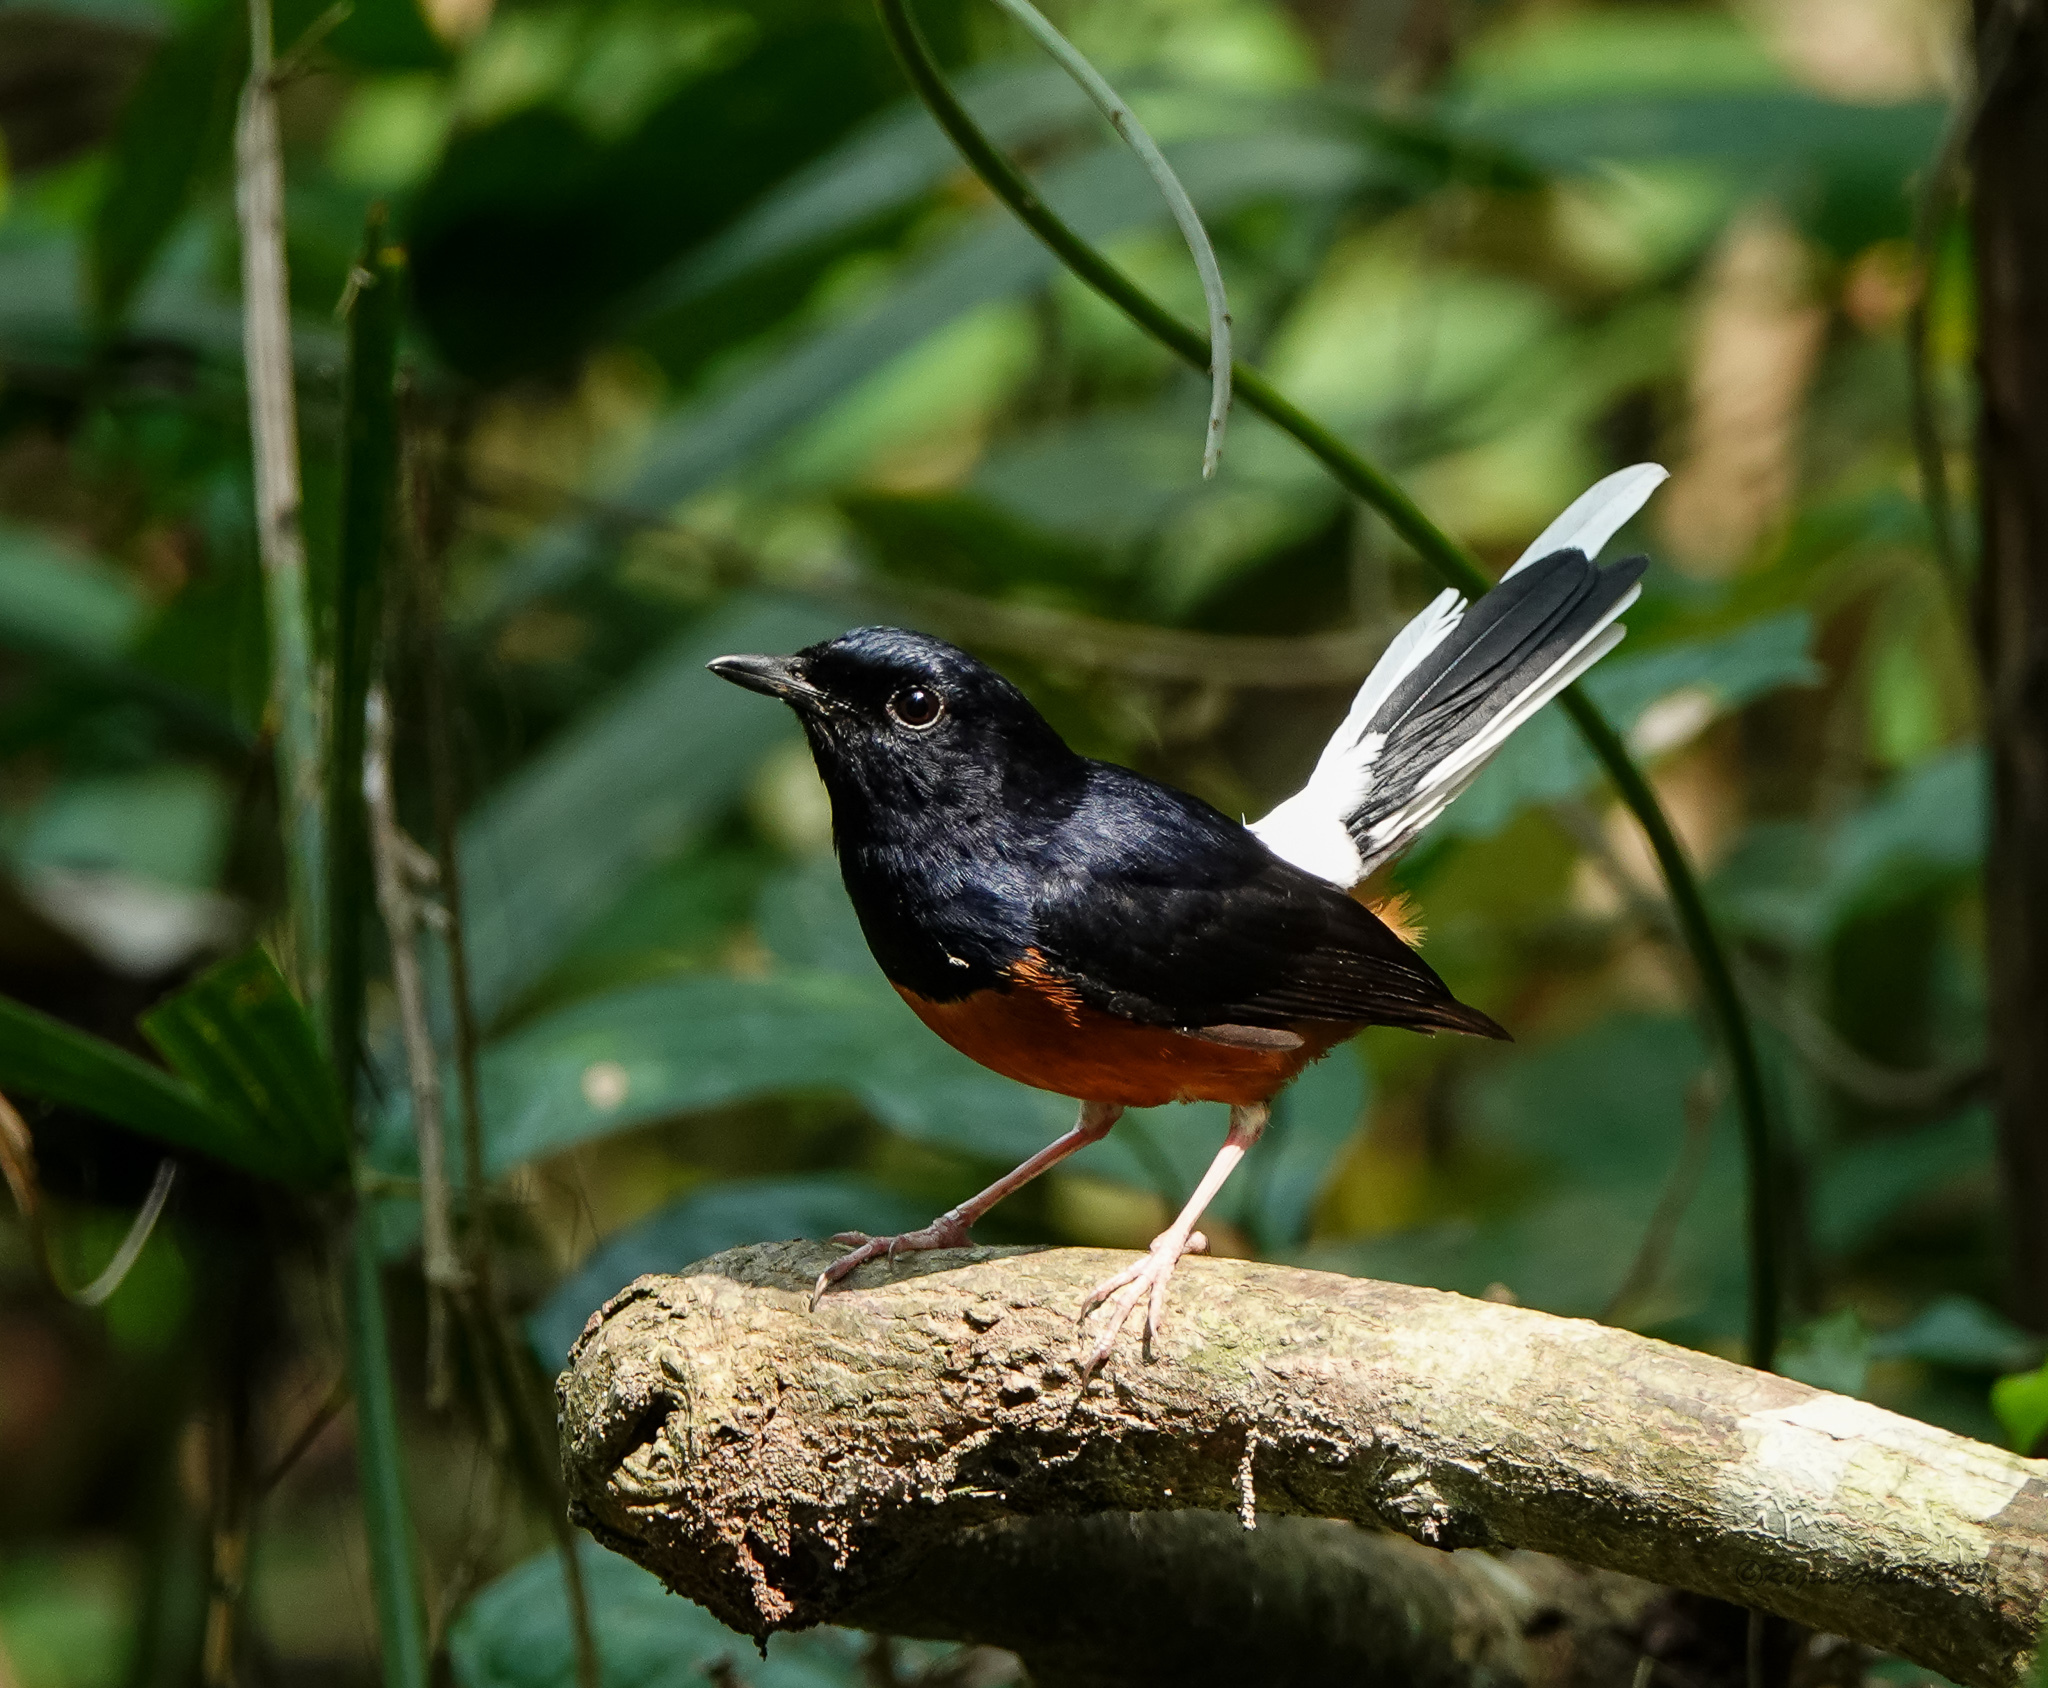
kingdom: Animalia
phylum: Chordata
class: Aves
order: Passeriformes
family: Muscicapidae
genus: Copsychus
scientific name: Copsychus malabaricus
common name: White-rumped shama
